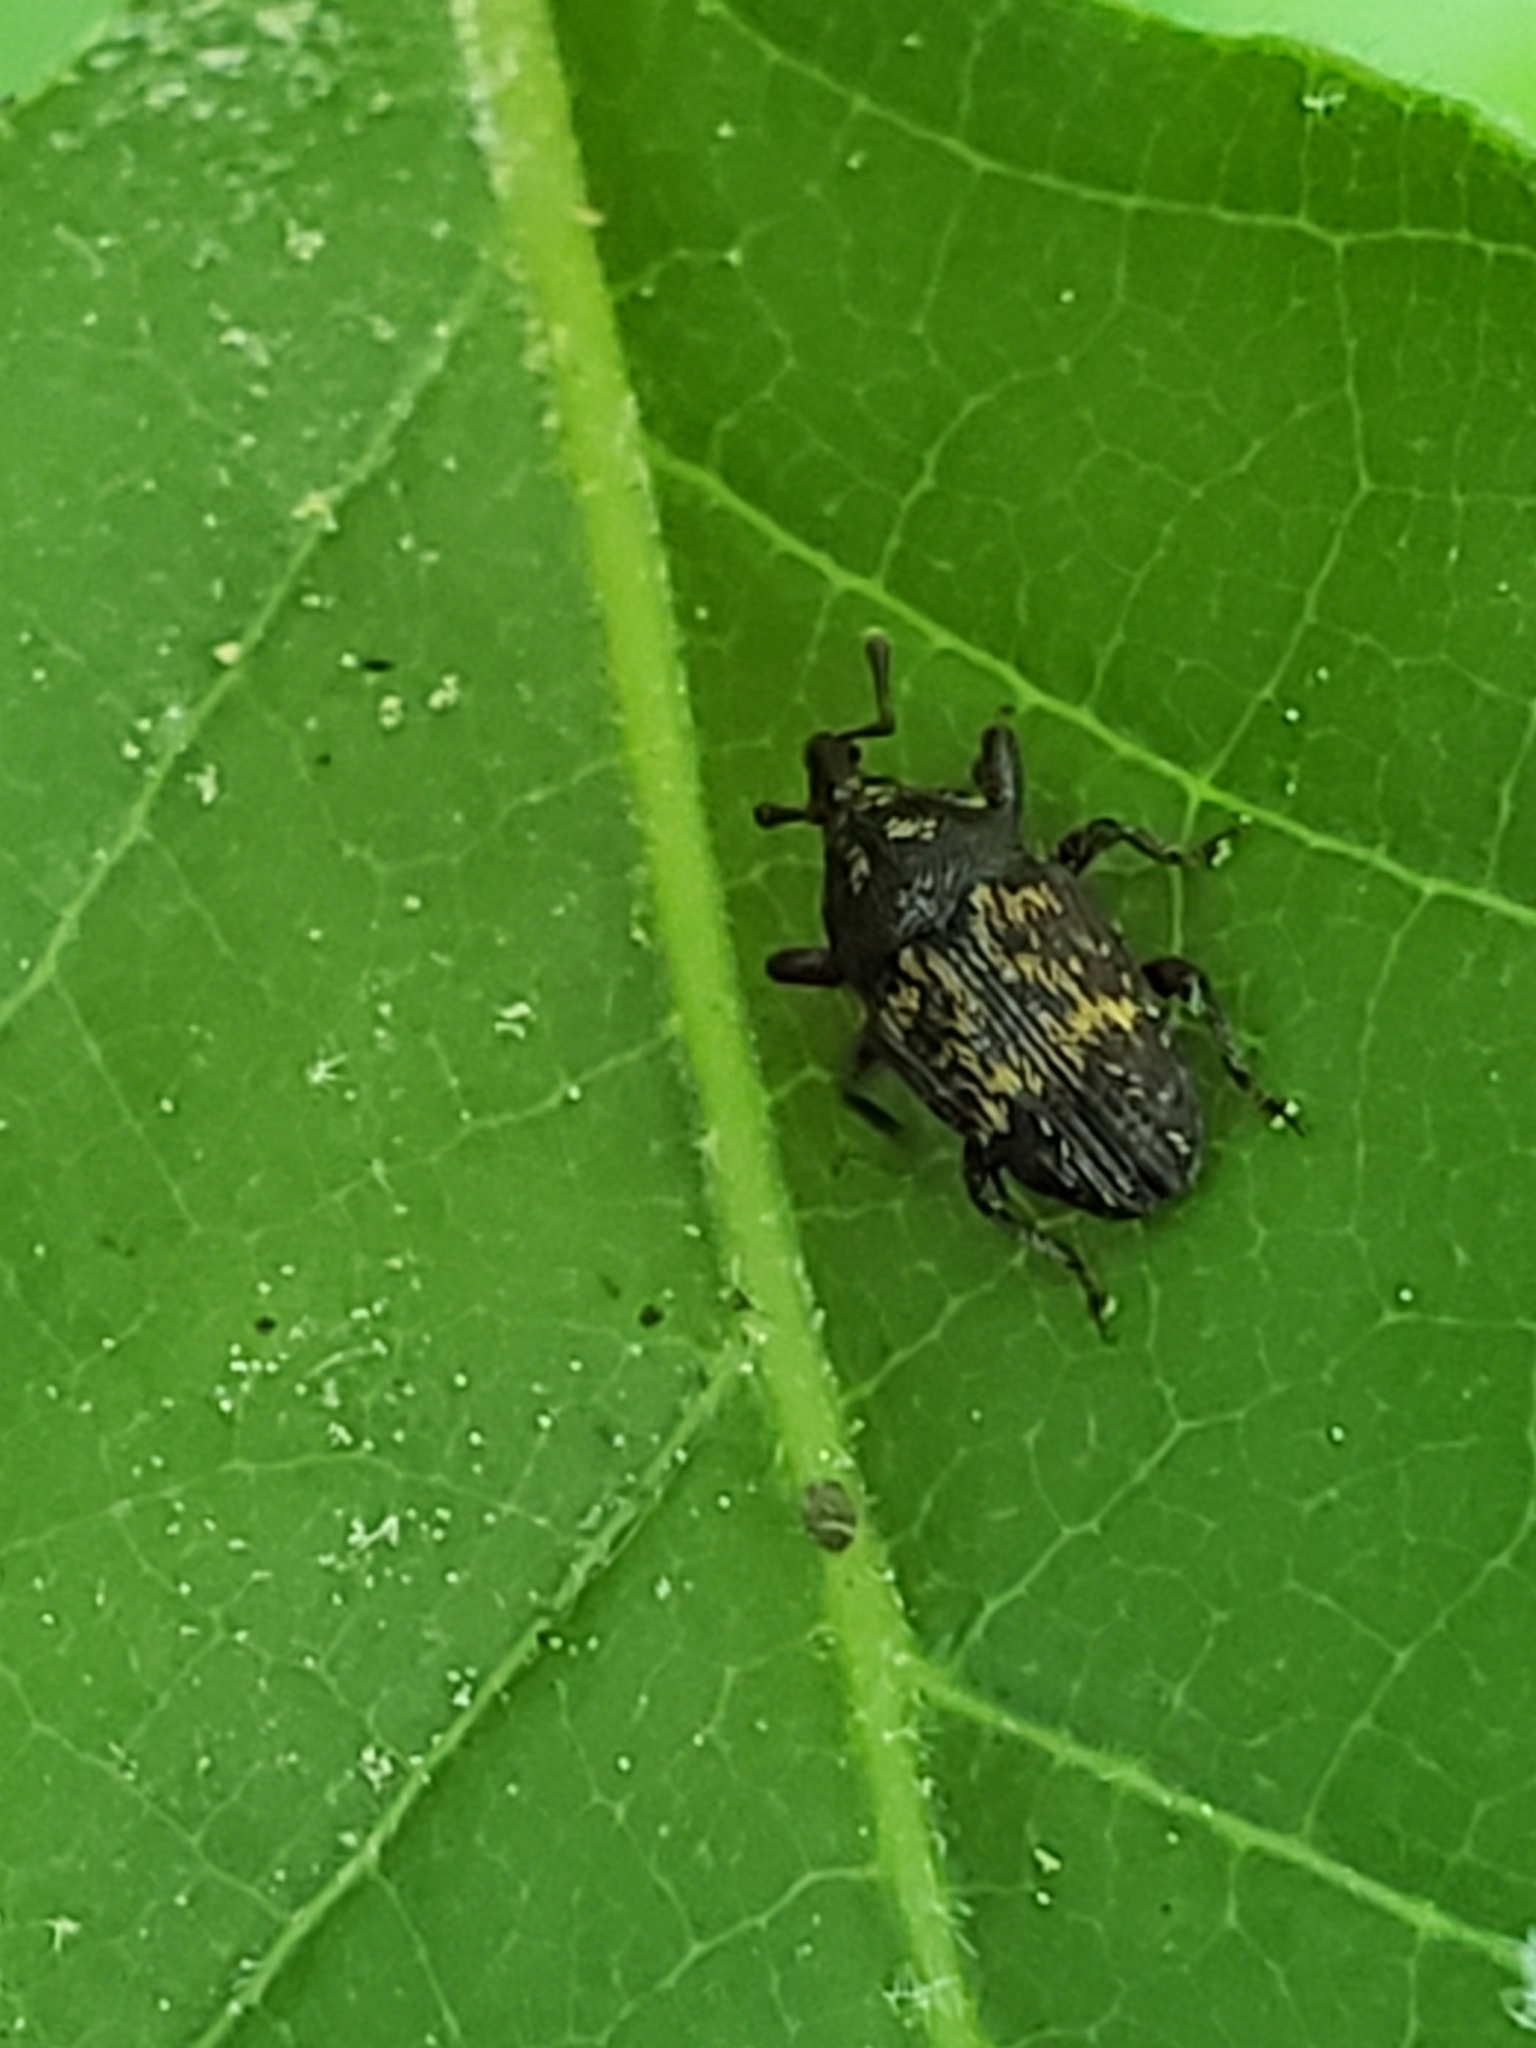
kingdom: Animalia
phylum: Arthropoda
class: Insecta
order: Coleoptera
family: Curculionidae
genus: Glyptobaris
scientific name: Glyptobaris lecontei
